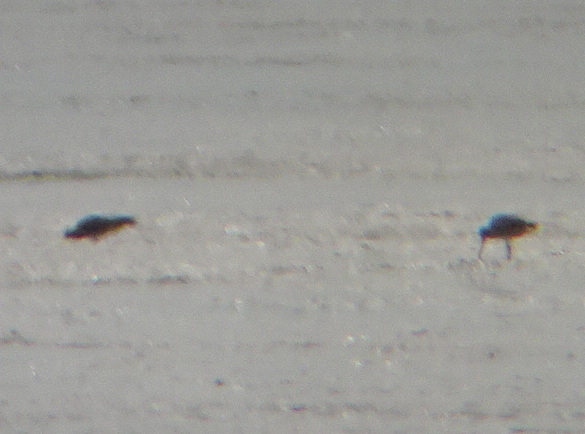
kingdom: Animalia
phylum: Chordata
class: Aves
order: Charadriiformes
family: Scolopacidae
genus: Numenius
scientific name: Numenius
